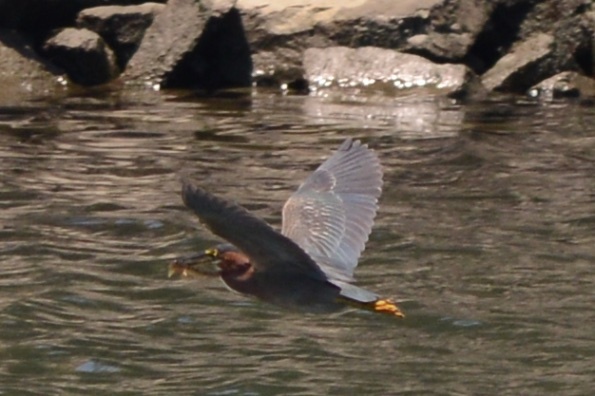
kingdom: Animalia
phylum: Chordata
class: Aves
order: Pelecaniformes
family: Ardeidae
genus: Butorides
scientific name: Butorides virescens
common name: Green heron
